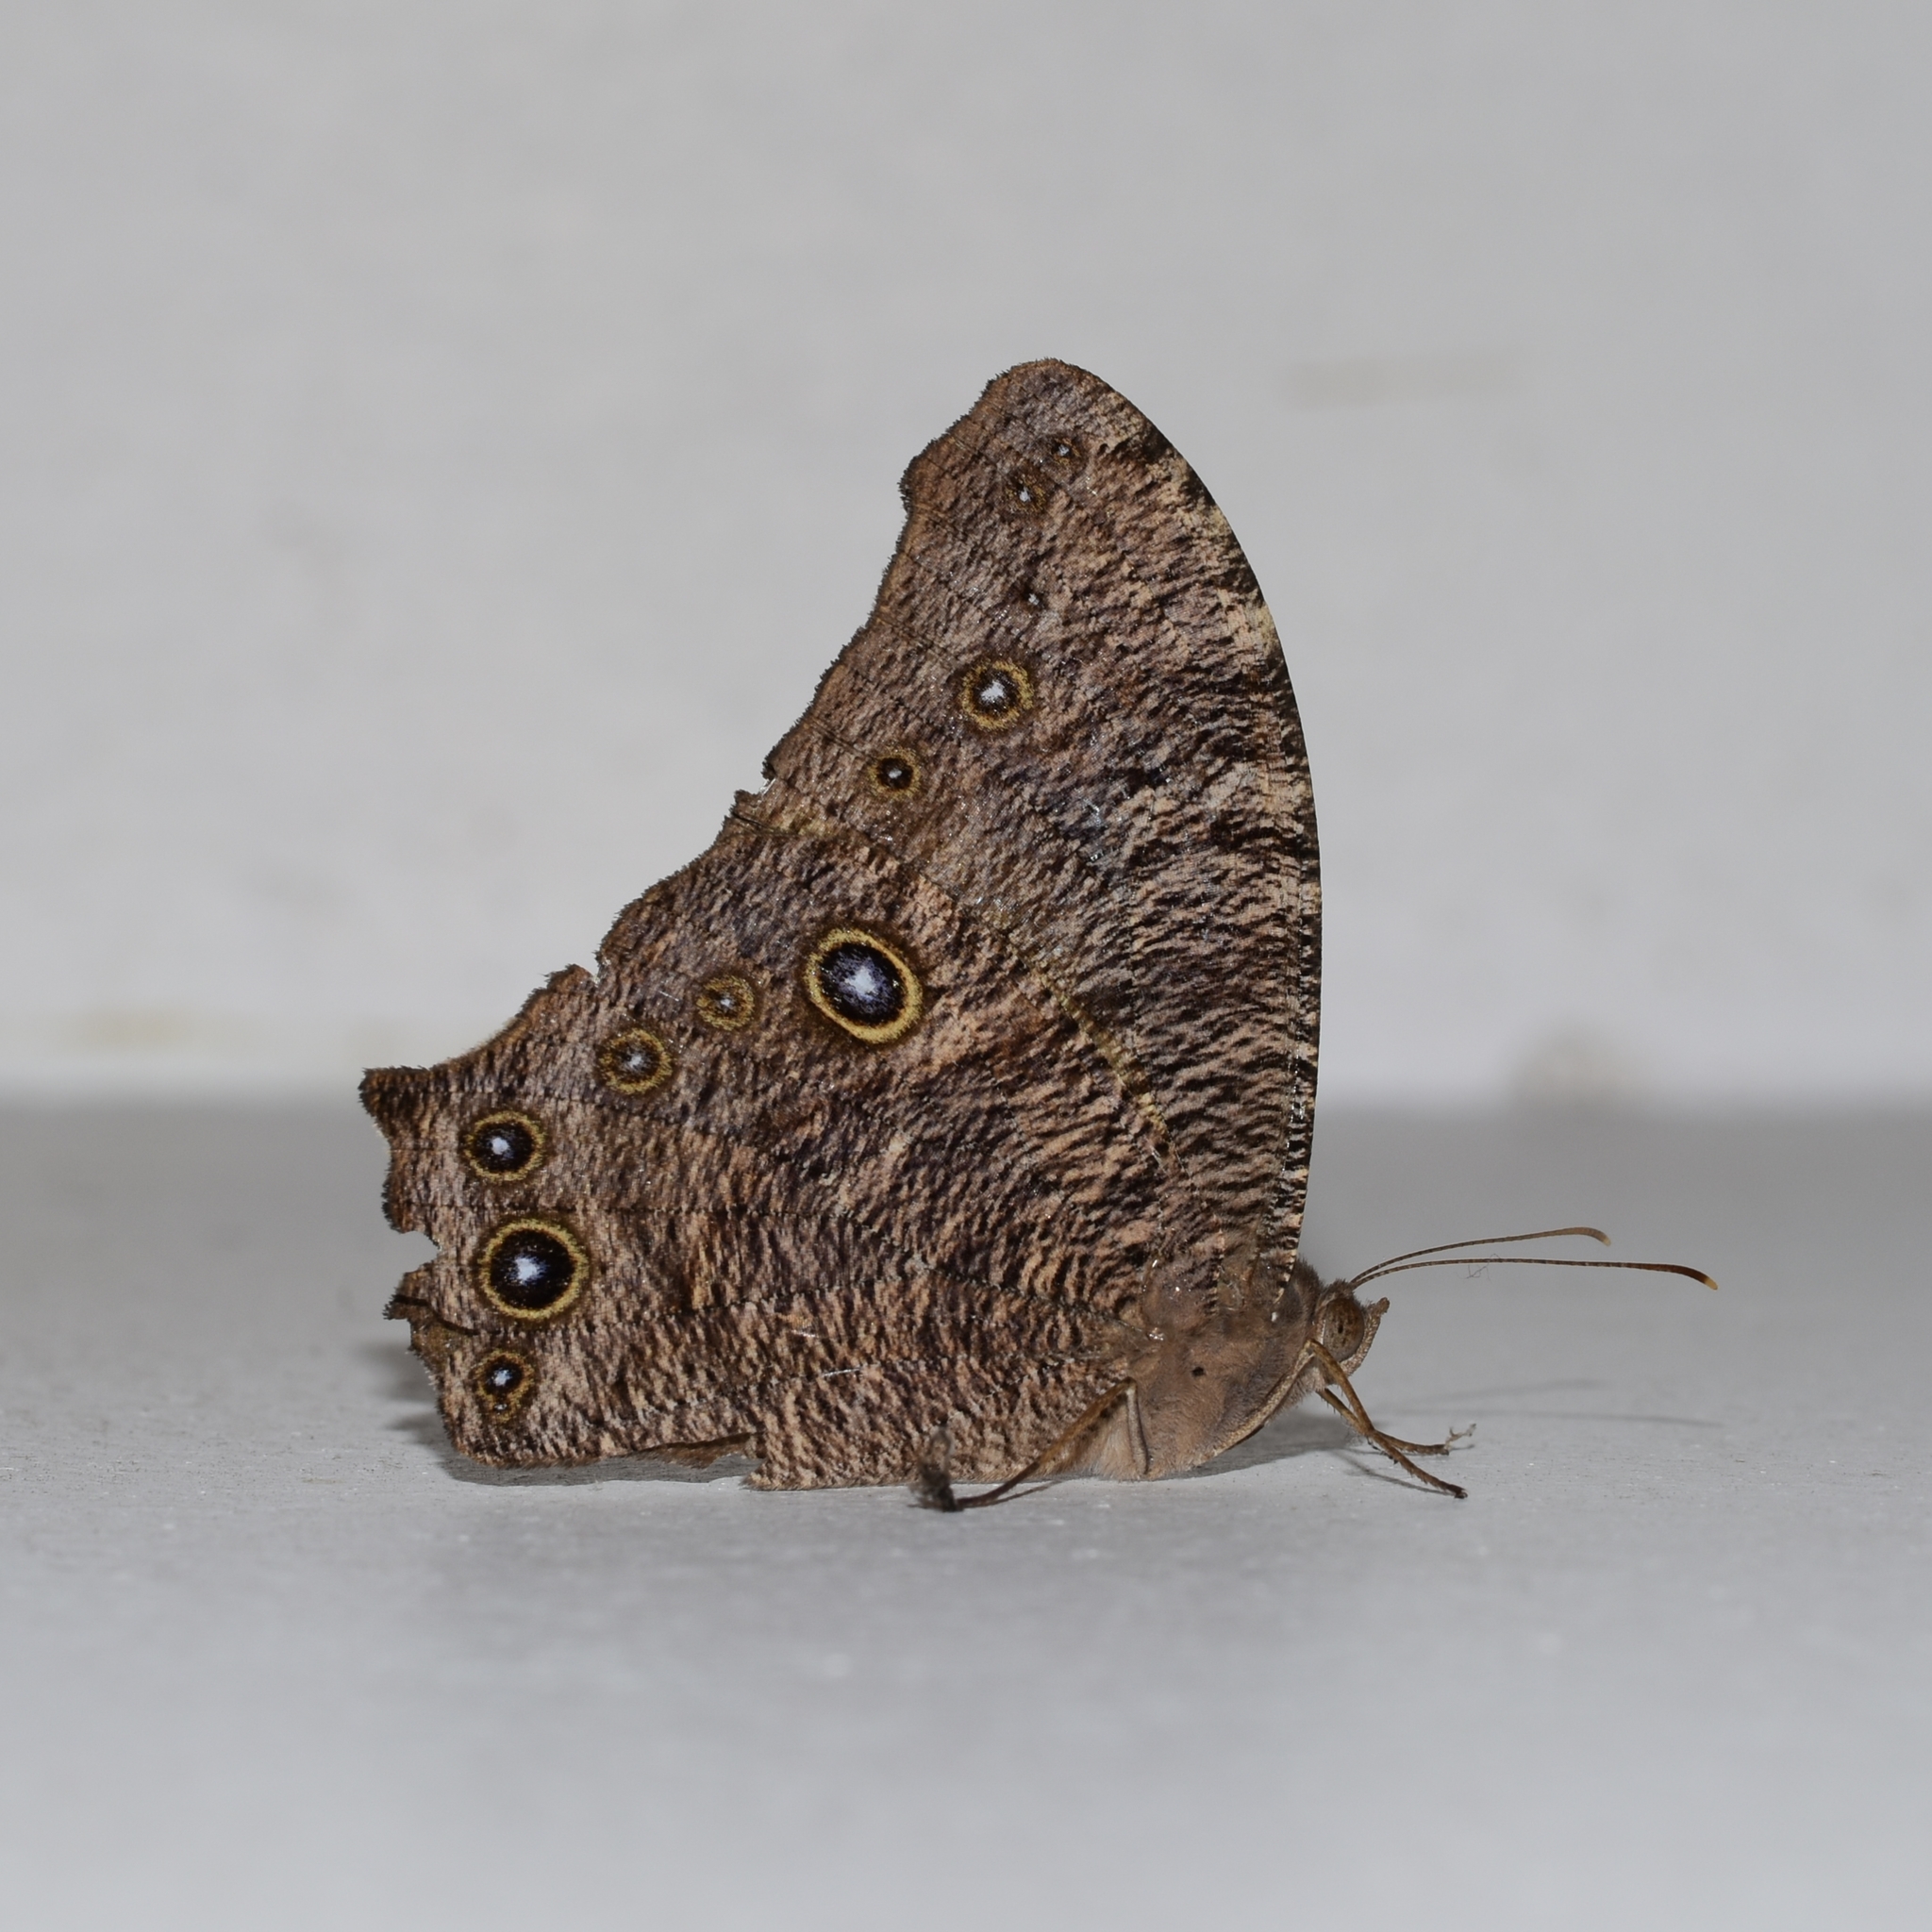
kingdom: Animalia
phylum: Arthropoda
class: Insecta
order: Lepidoptera
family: Nymphalidae
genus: Melanitis
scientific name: Melanitis leda
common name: Twilight brown
